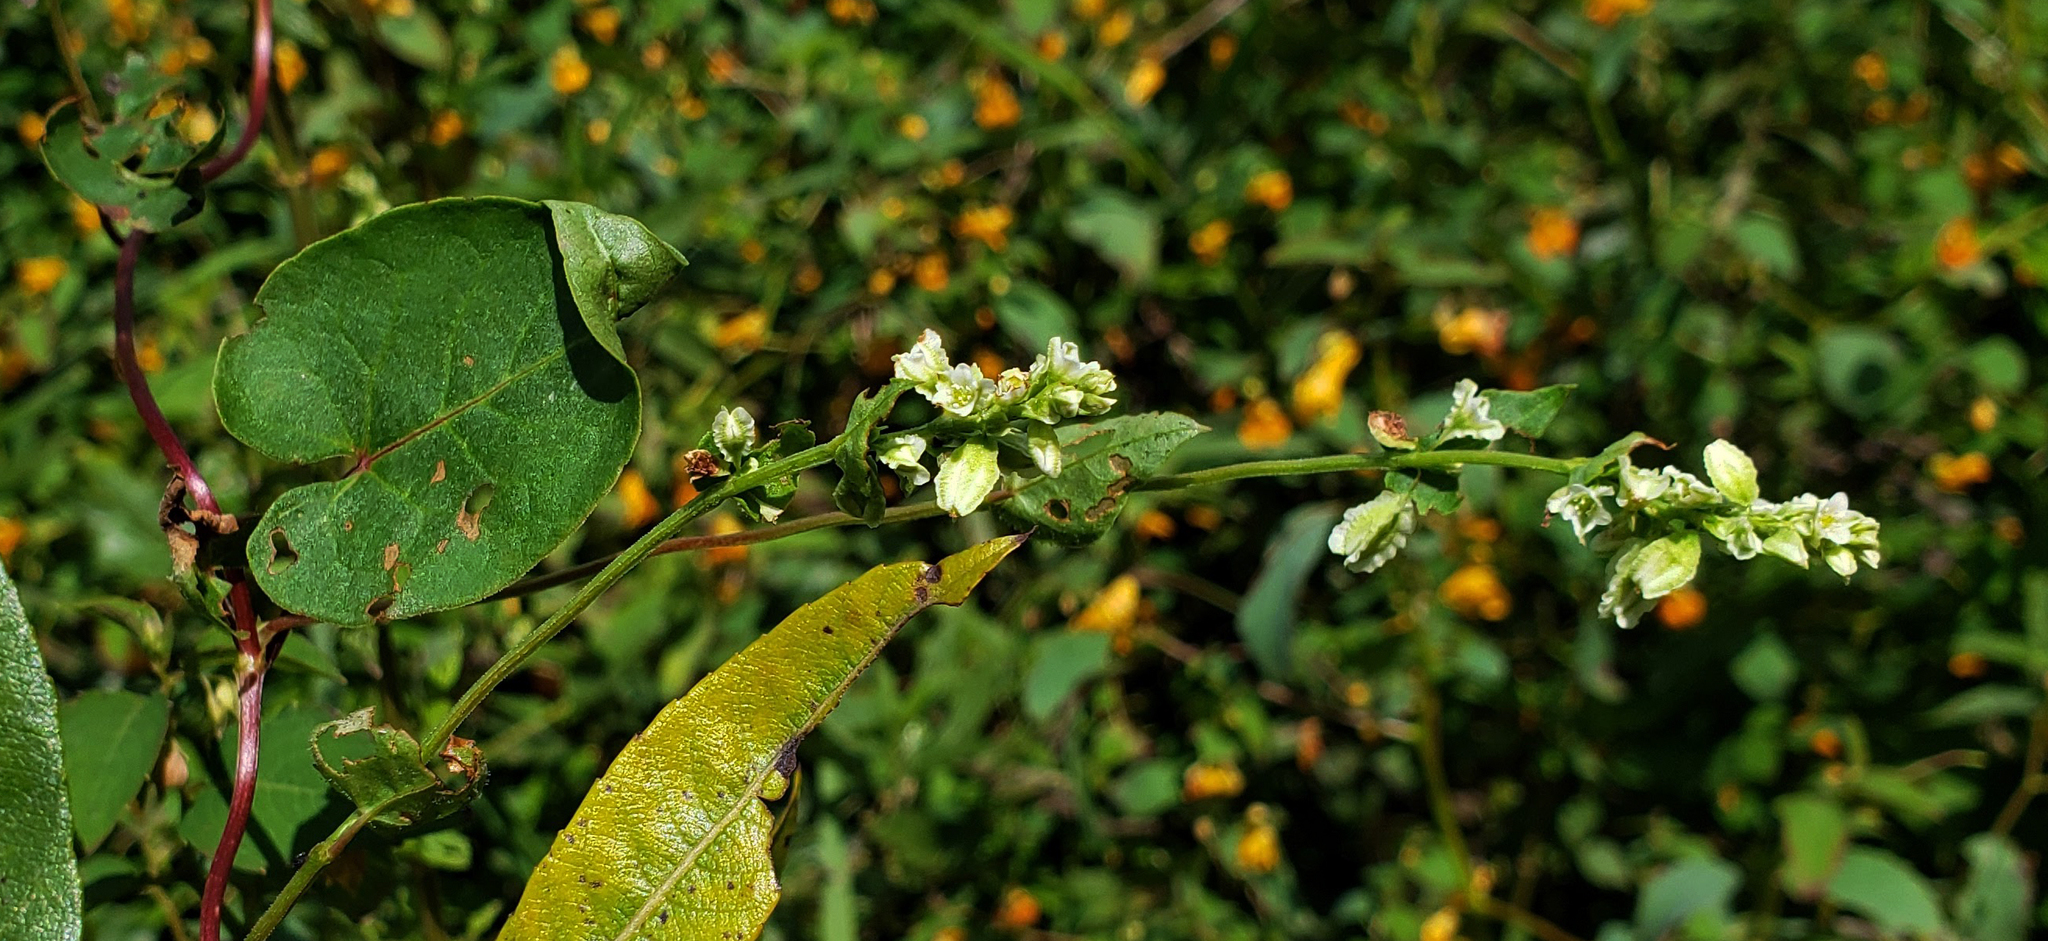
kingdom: Plantae
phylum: Tracheophyta
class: Magnoliopsida
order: Caryophyllales
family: Polygonaceae
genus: Fallopia
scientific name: Fallopia scandens
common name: Climbing false buckwheat
